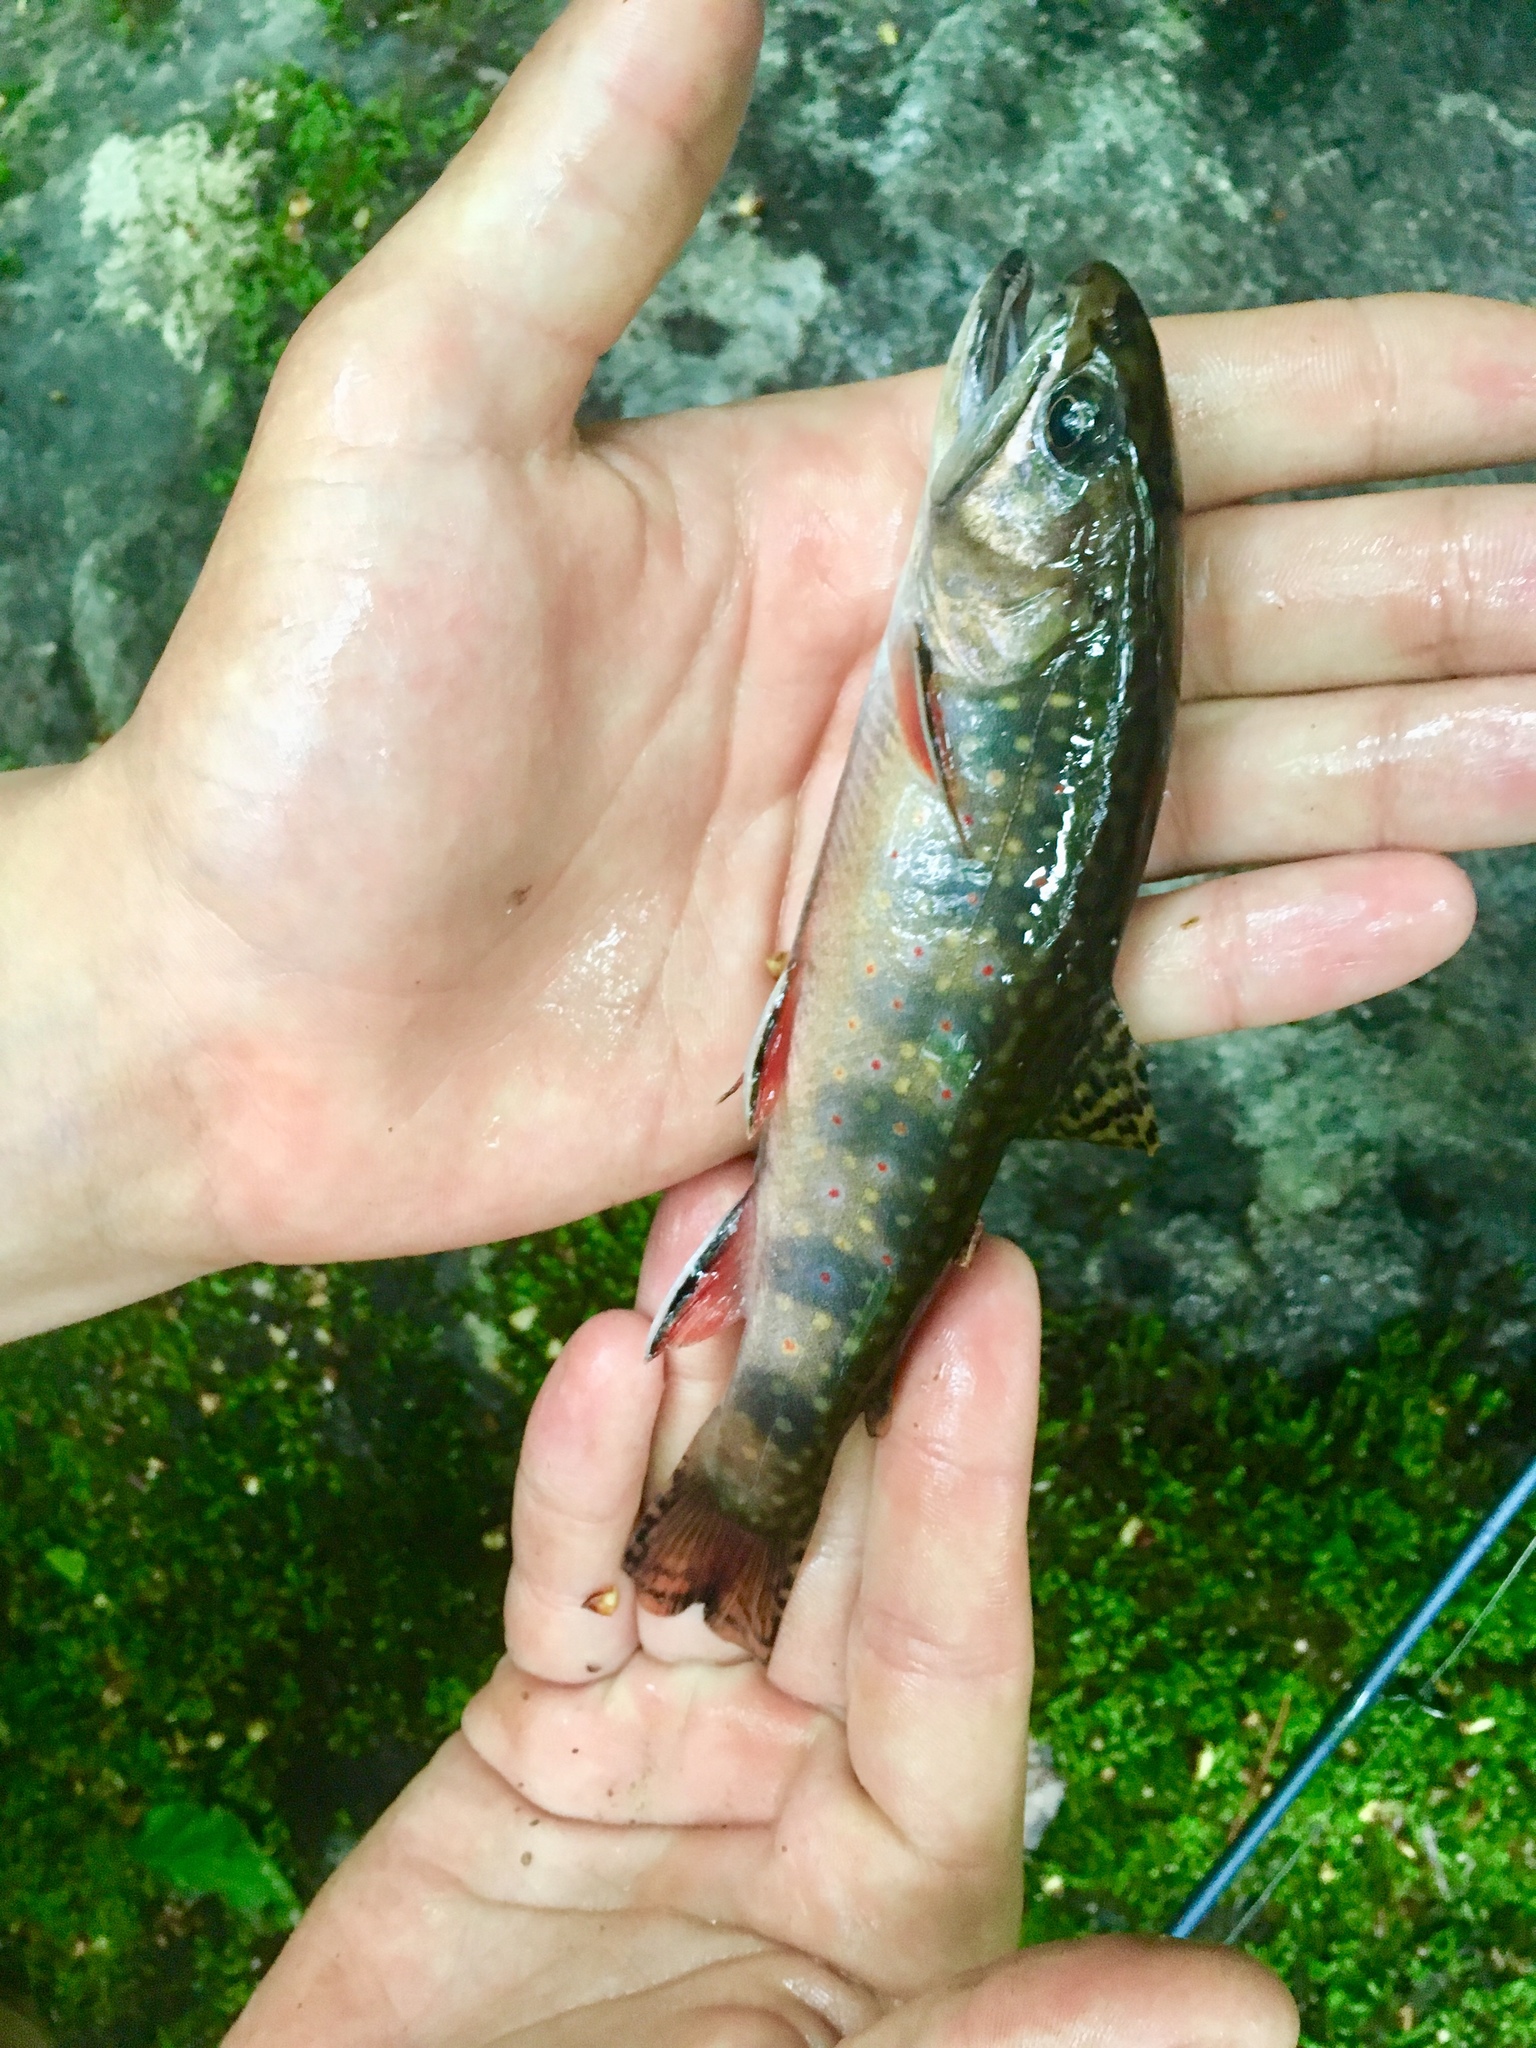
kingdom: Animalia
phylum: Chordata
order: Salmoniformes
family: Salmonidae
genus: Salvelinus
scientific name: Salvelinus fontinalis
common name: Brook trout
